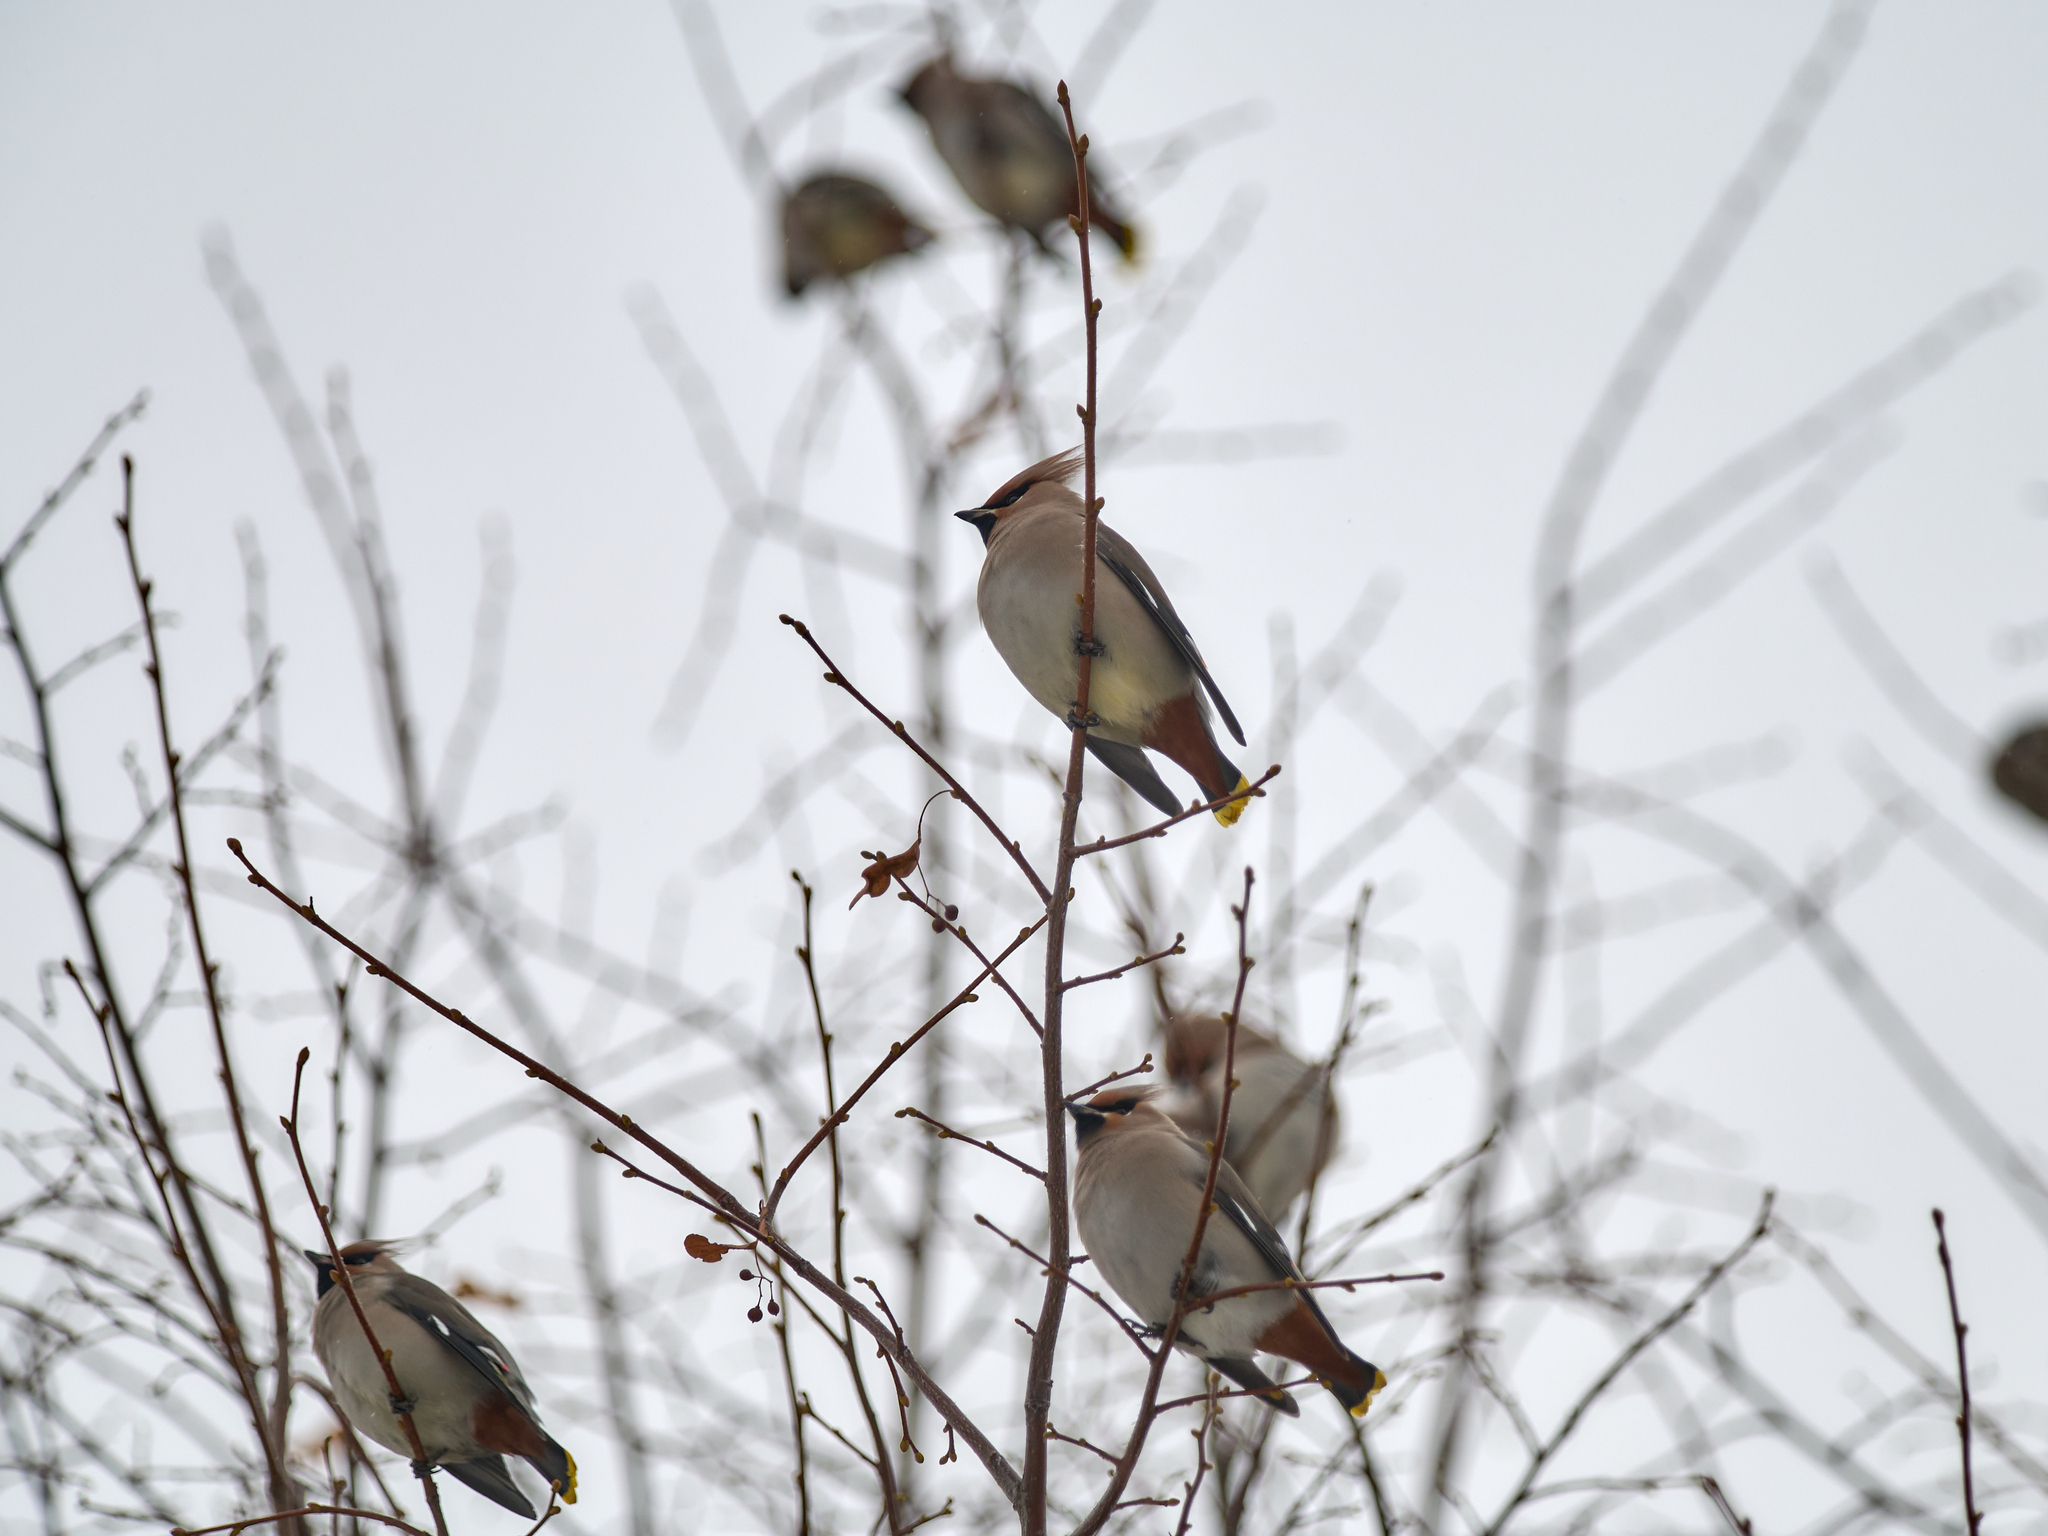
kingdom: Animalia
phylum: Chordata
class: Aves
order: Passeriformes
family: Bombycillidae
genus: Bombycilla
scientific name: Bombycilla garrulus
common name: Bohemian waxwing
